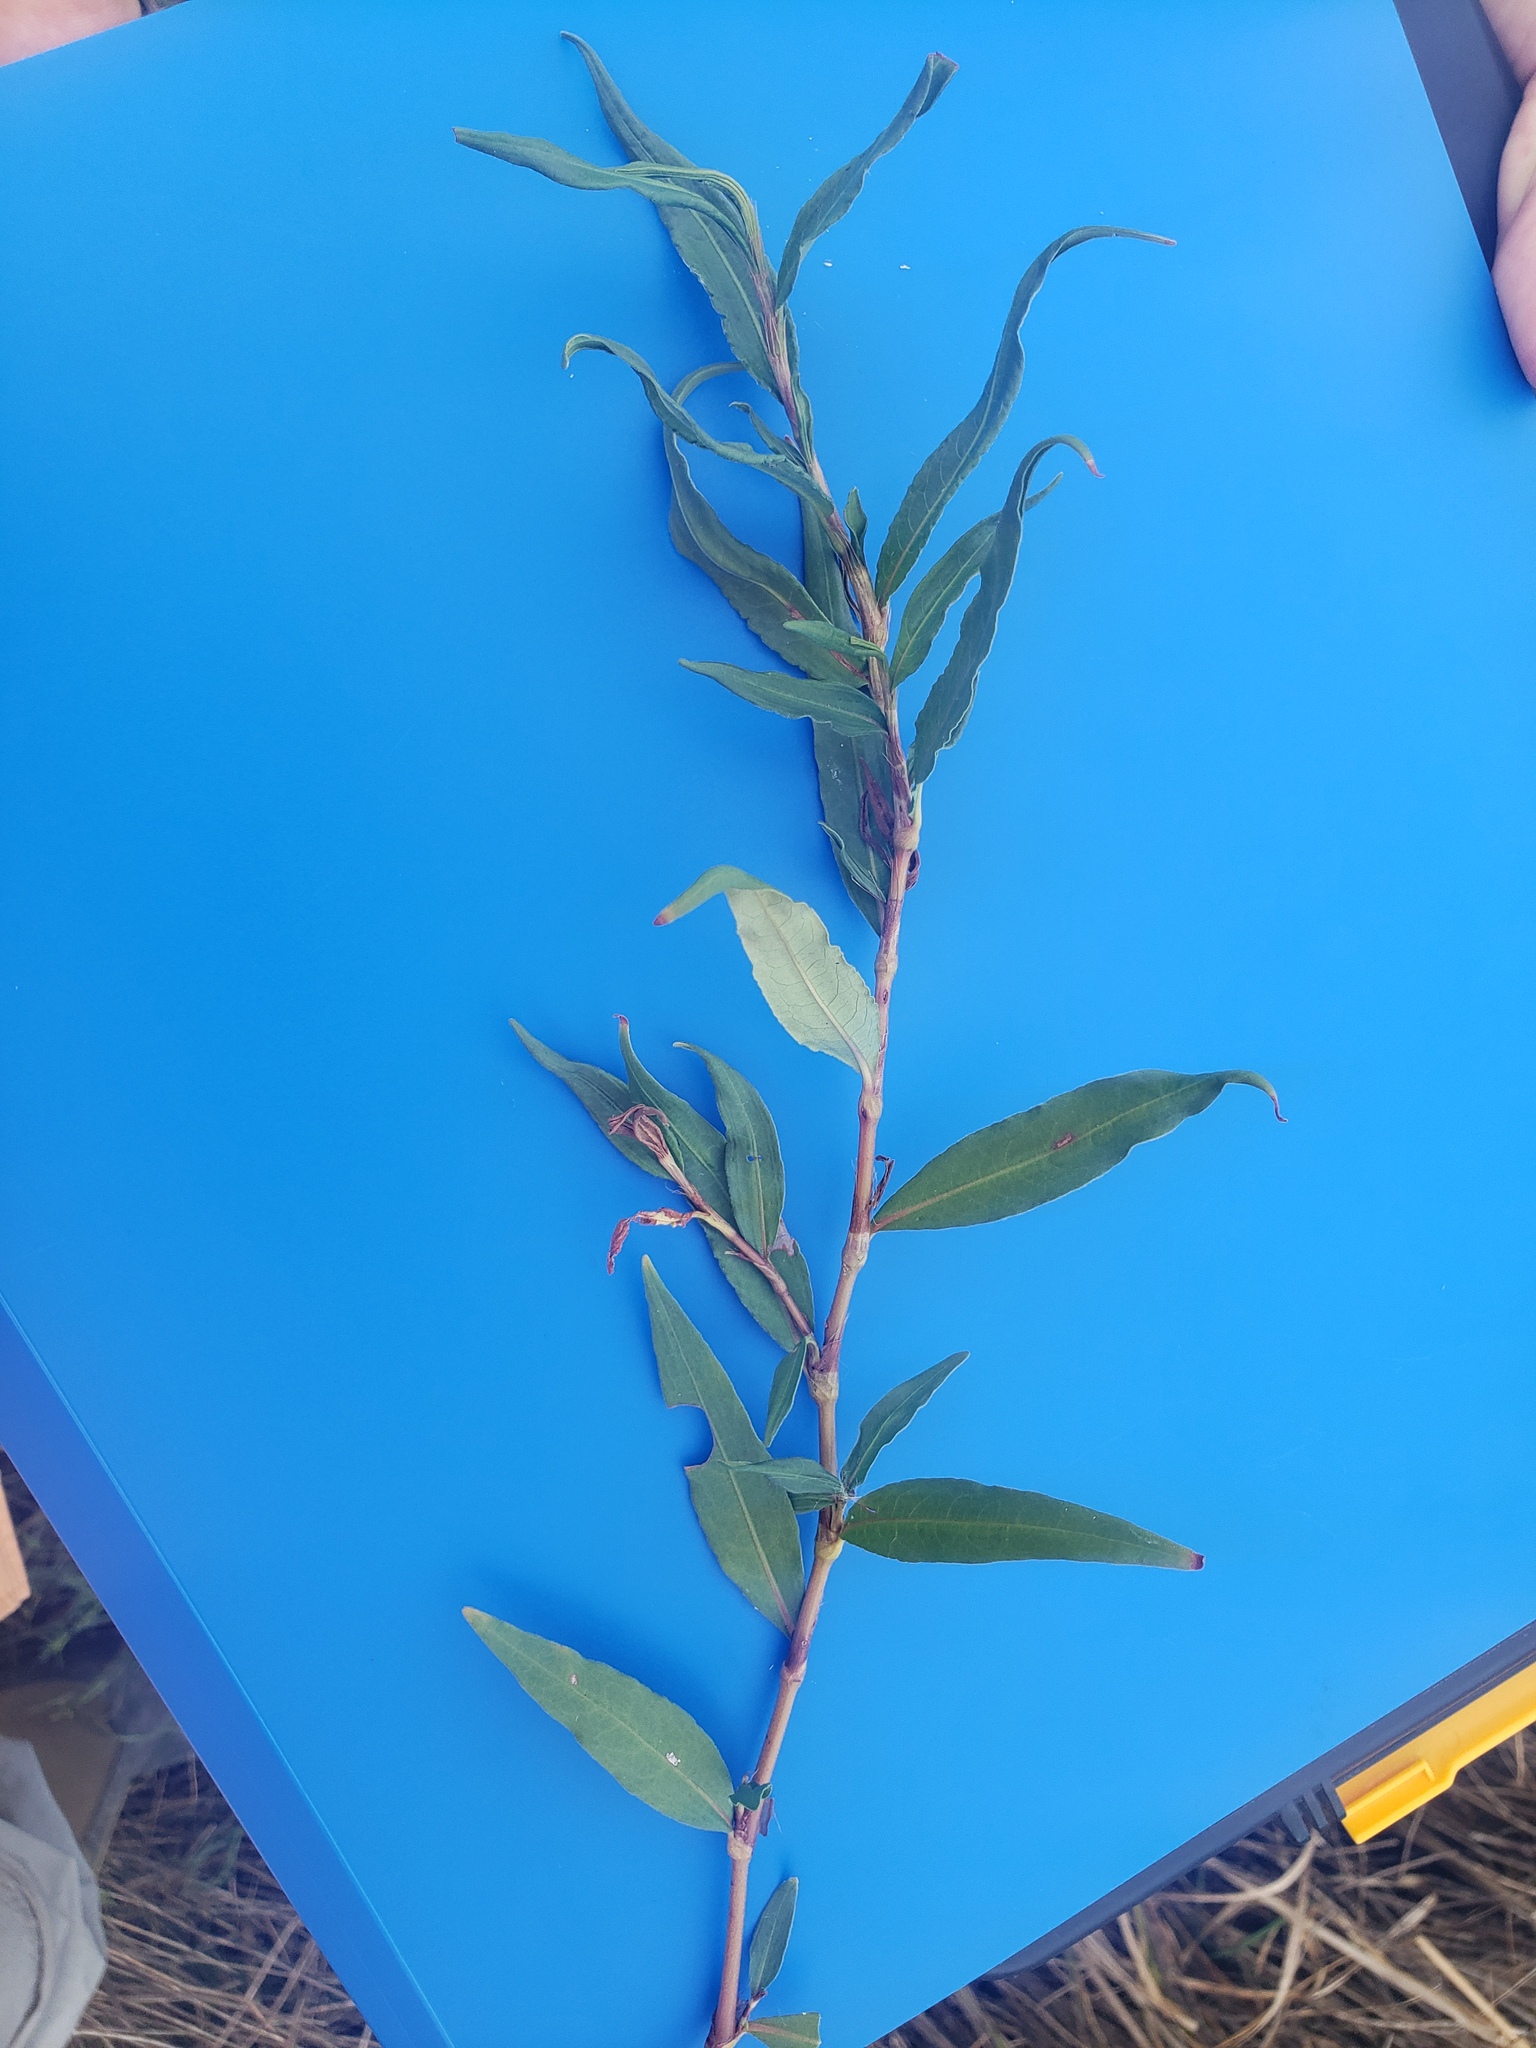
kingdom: Plantae
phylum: Tracheophyta
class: Magnoliopsida
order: Caryophyllales
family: Polygonaceae
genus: Persicaria
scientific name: Persicaria bicornis
